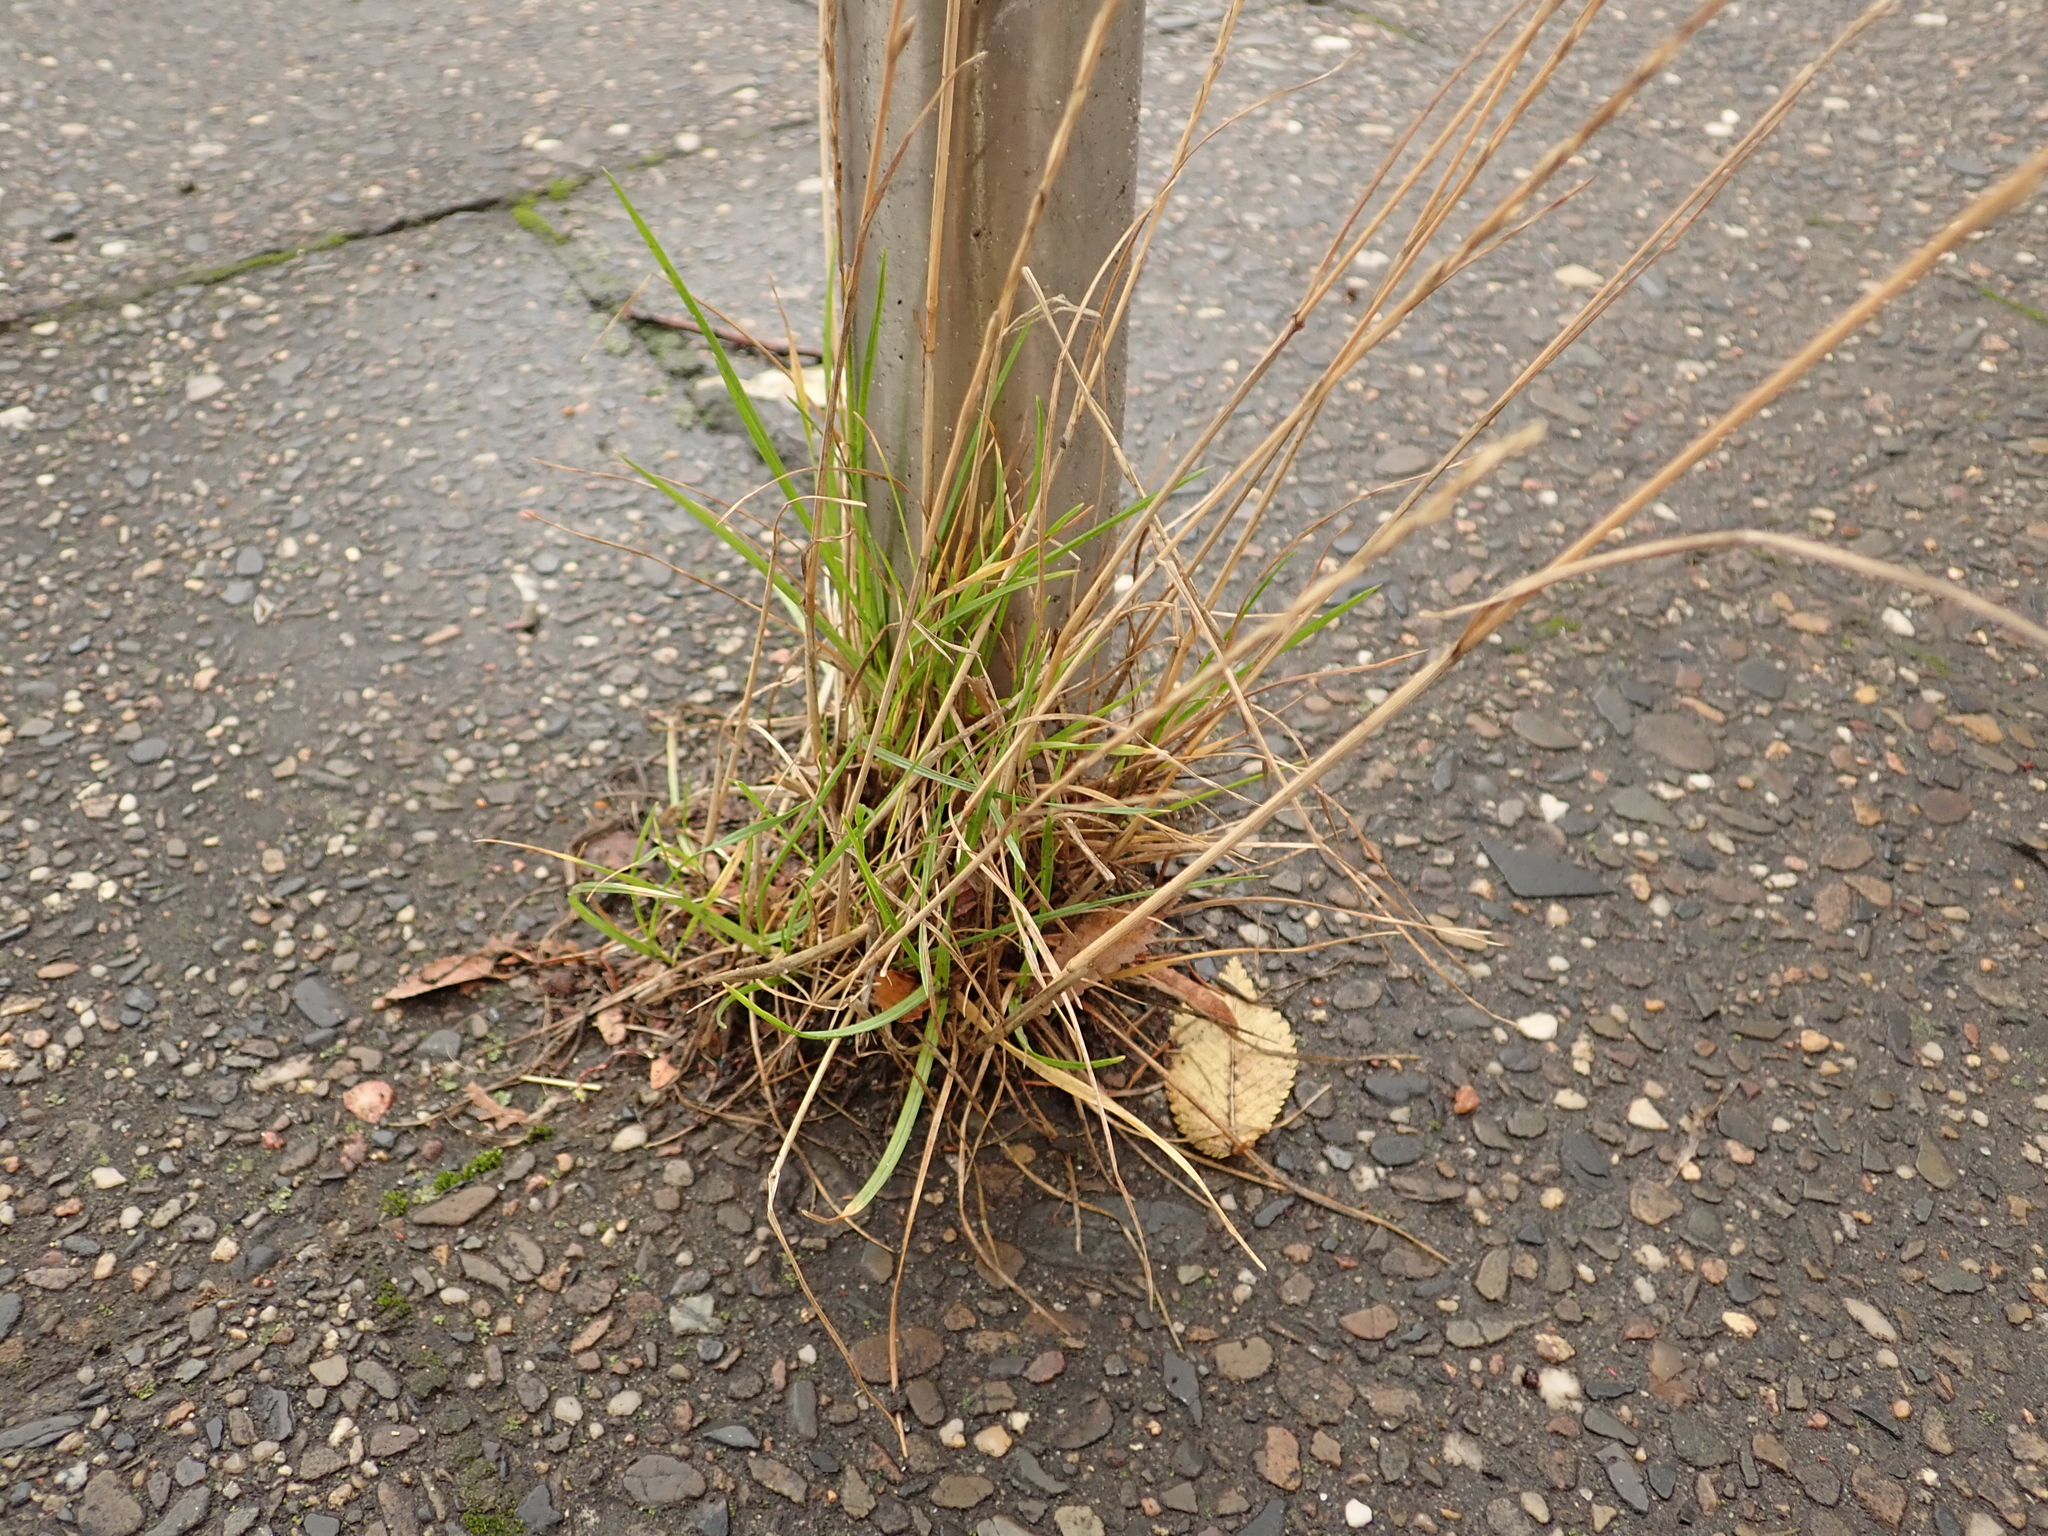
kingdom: Plantae
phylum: Tracheophyta
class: Liliopsida
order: Poales
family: Poaceae
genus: Lolium
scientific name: Lolium perenne
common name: Perennial ryegrass
